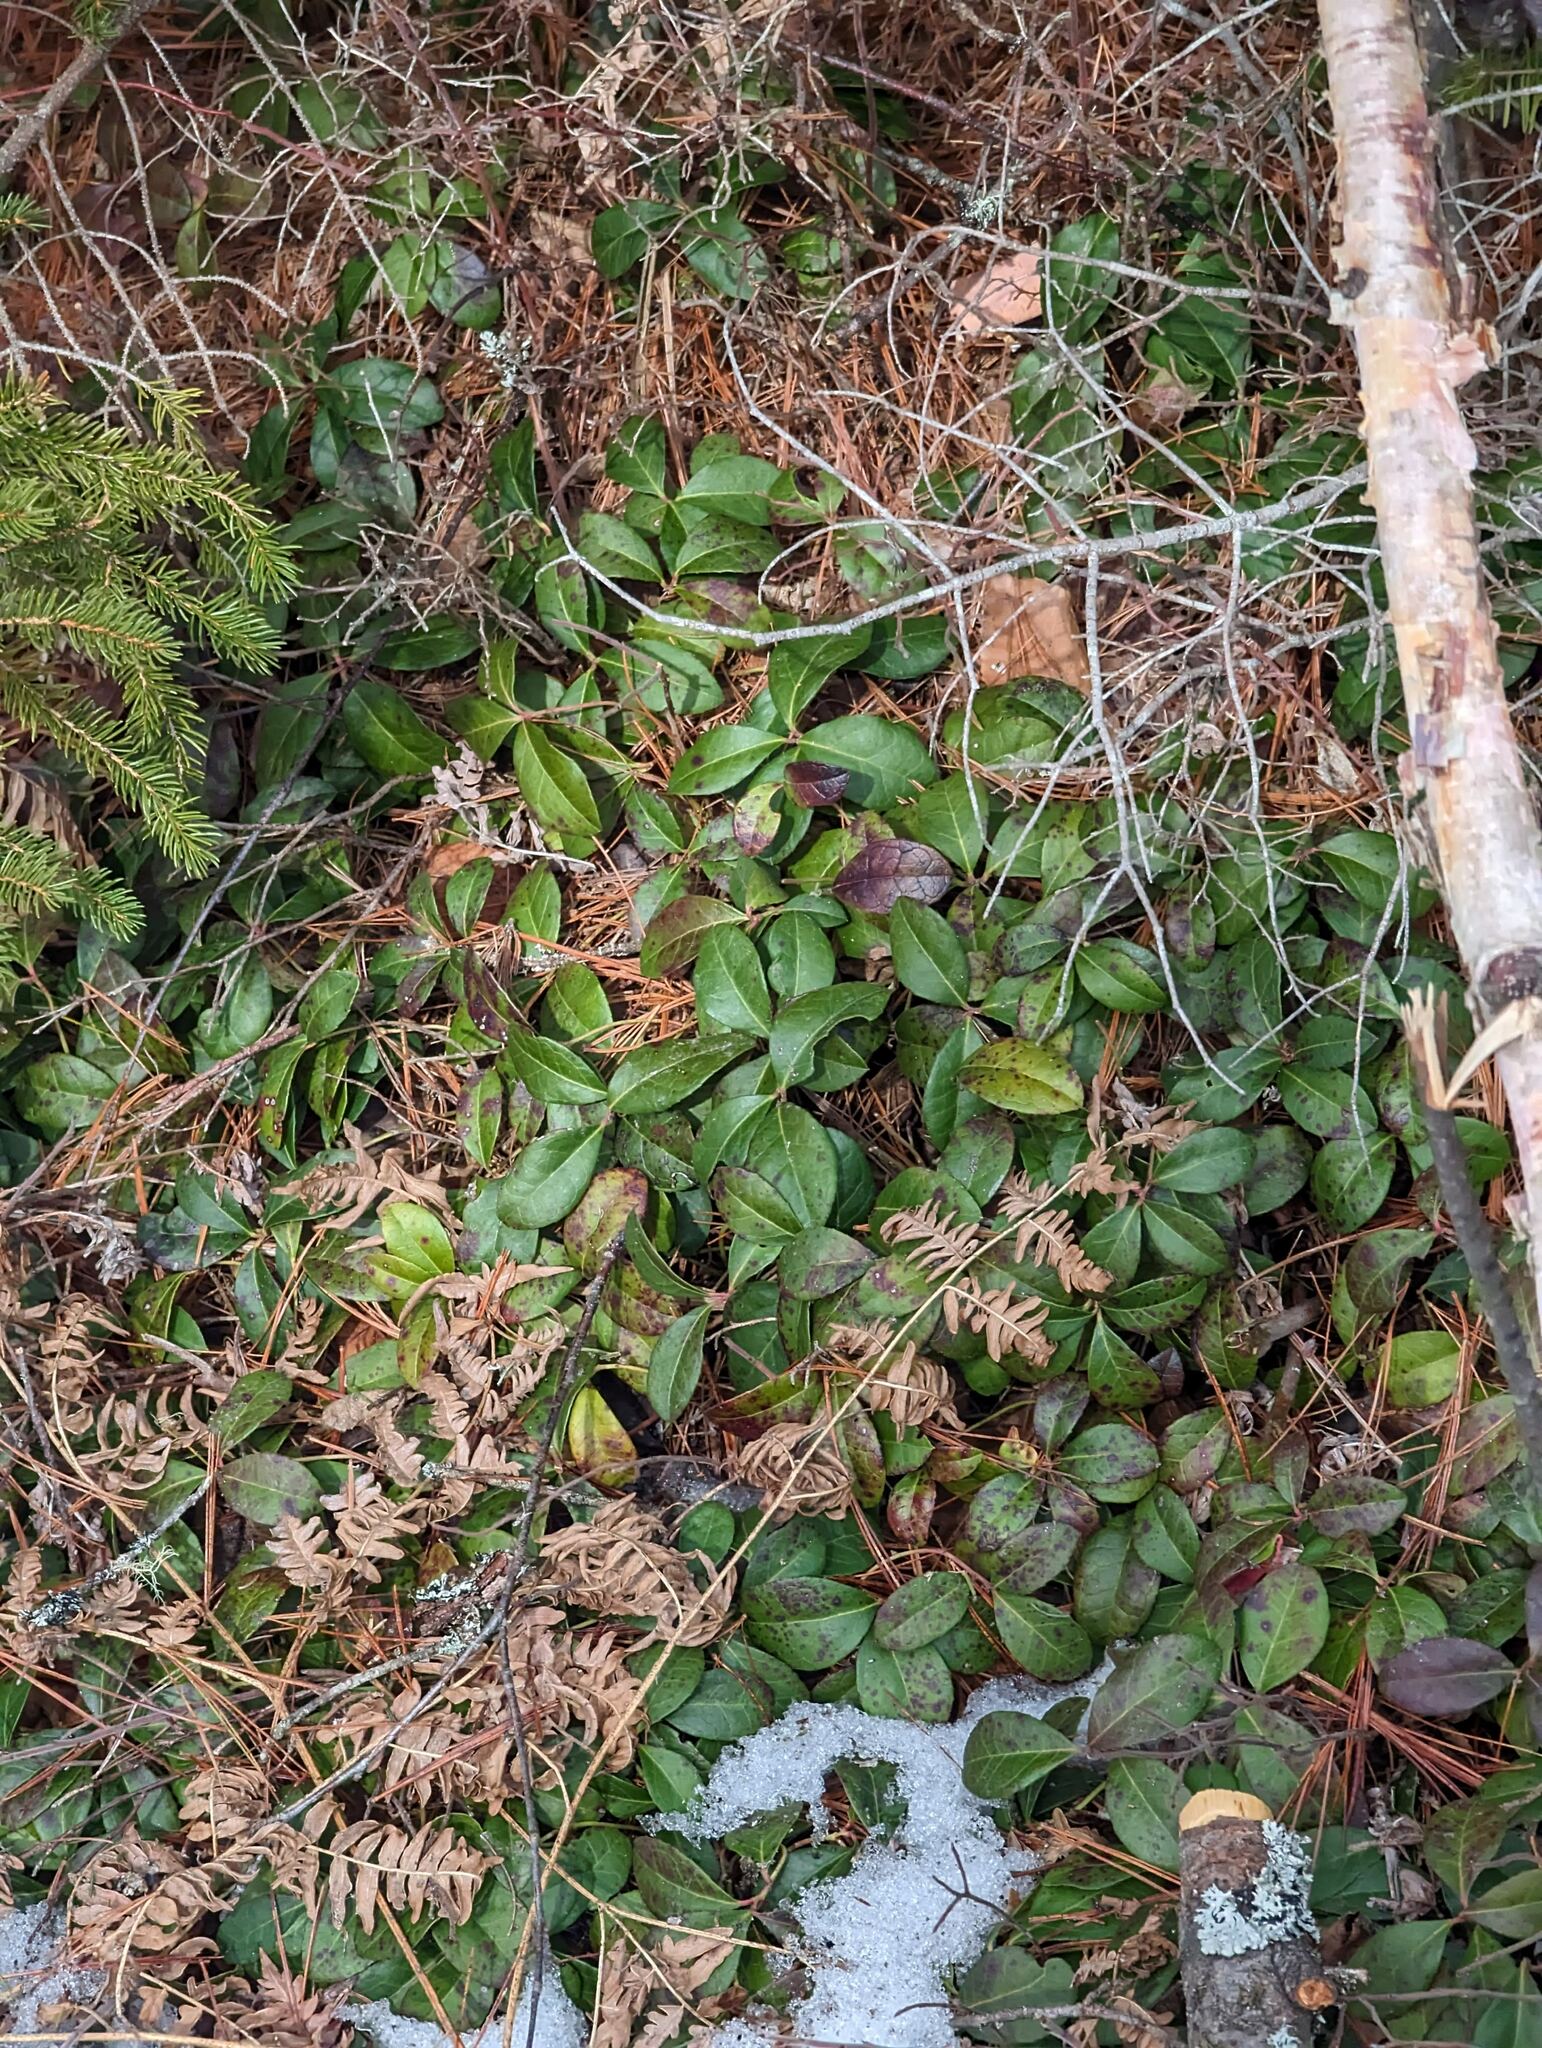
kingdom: Plantae
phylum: Tracheophyta
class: Magnoliopsida
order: Ericales
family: Ericaceae
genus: Gaultheria
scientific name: Gaultheria procumbens
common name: Checkerberry
